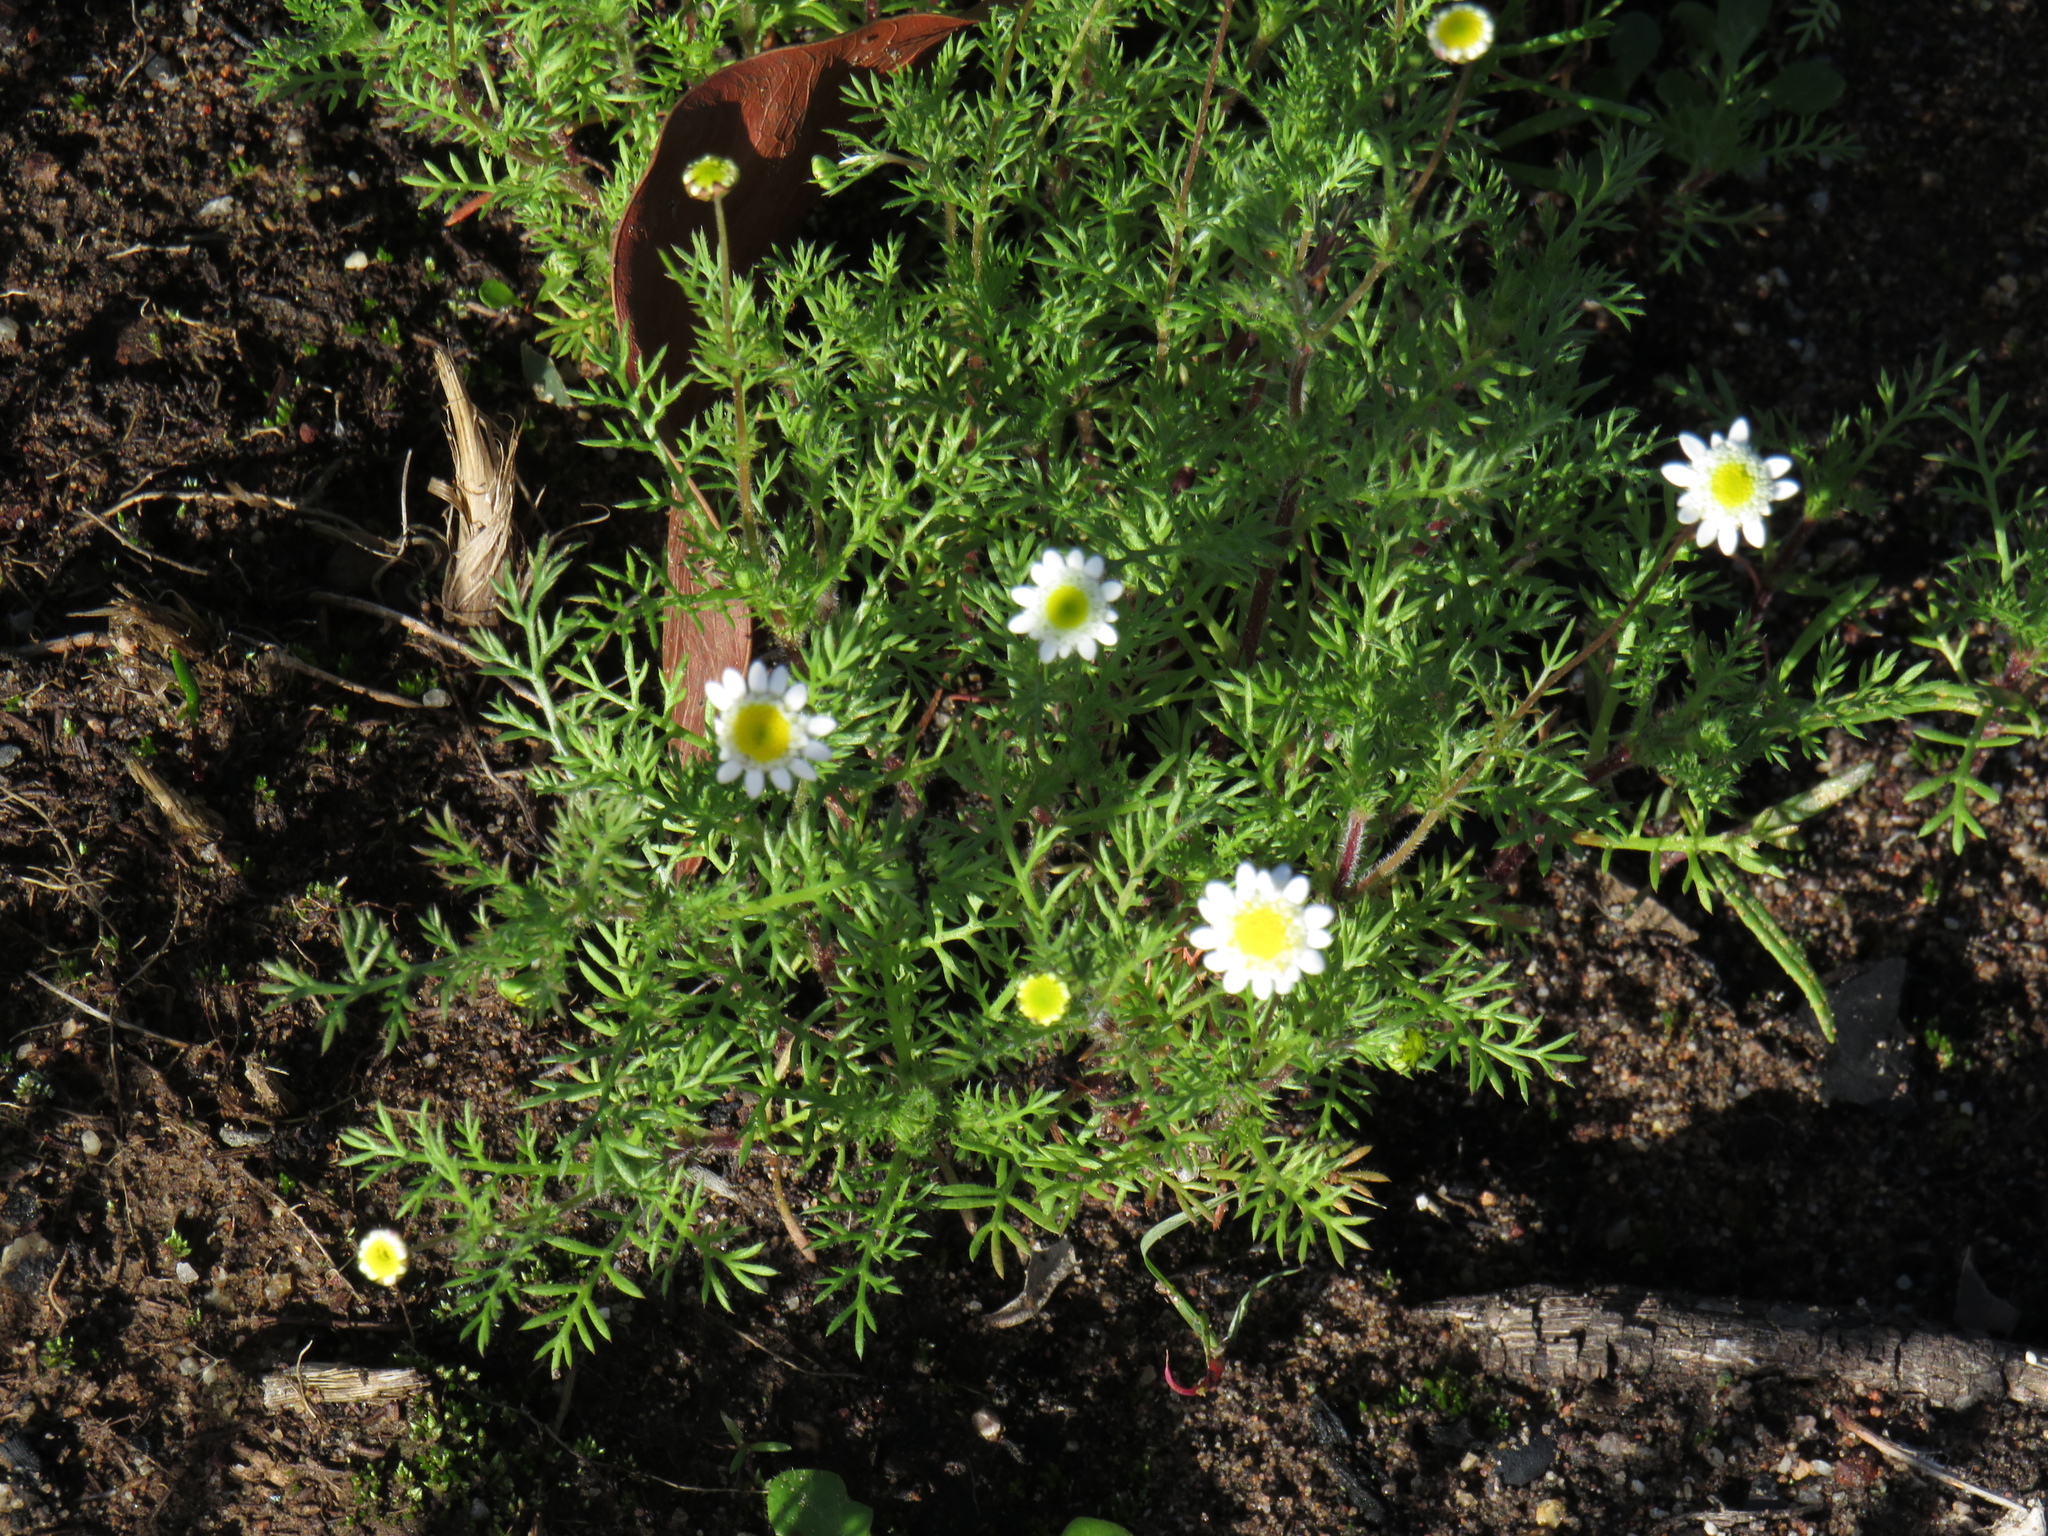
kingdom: Plantae
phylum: Tracheophyta
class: Magnoliopsida
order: Asterales
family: Asteraceae
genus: Cotula
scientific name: Cotula turbinata
